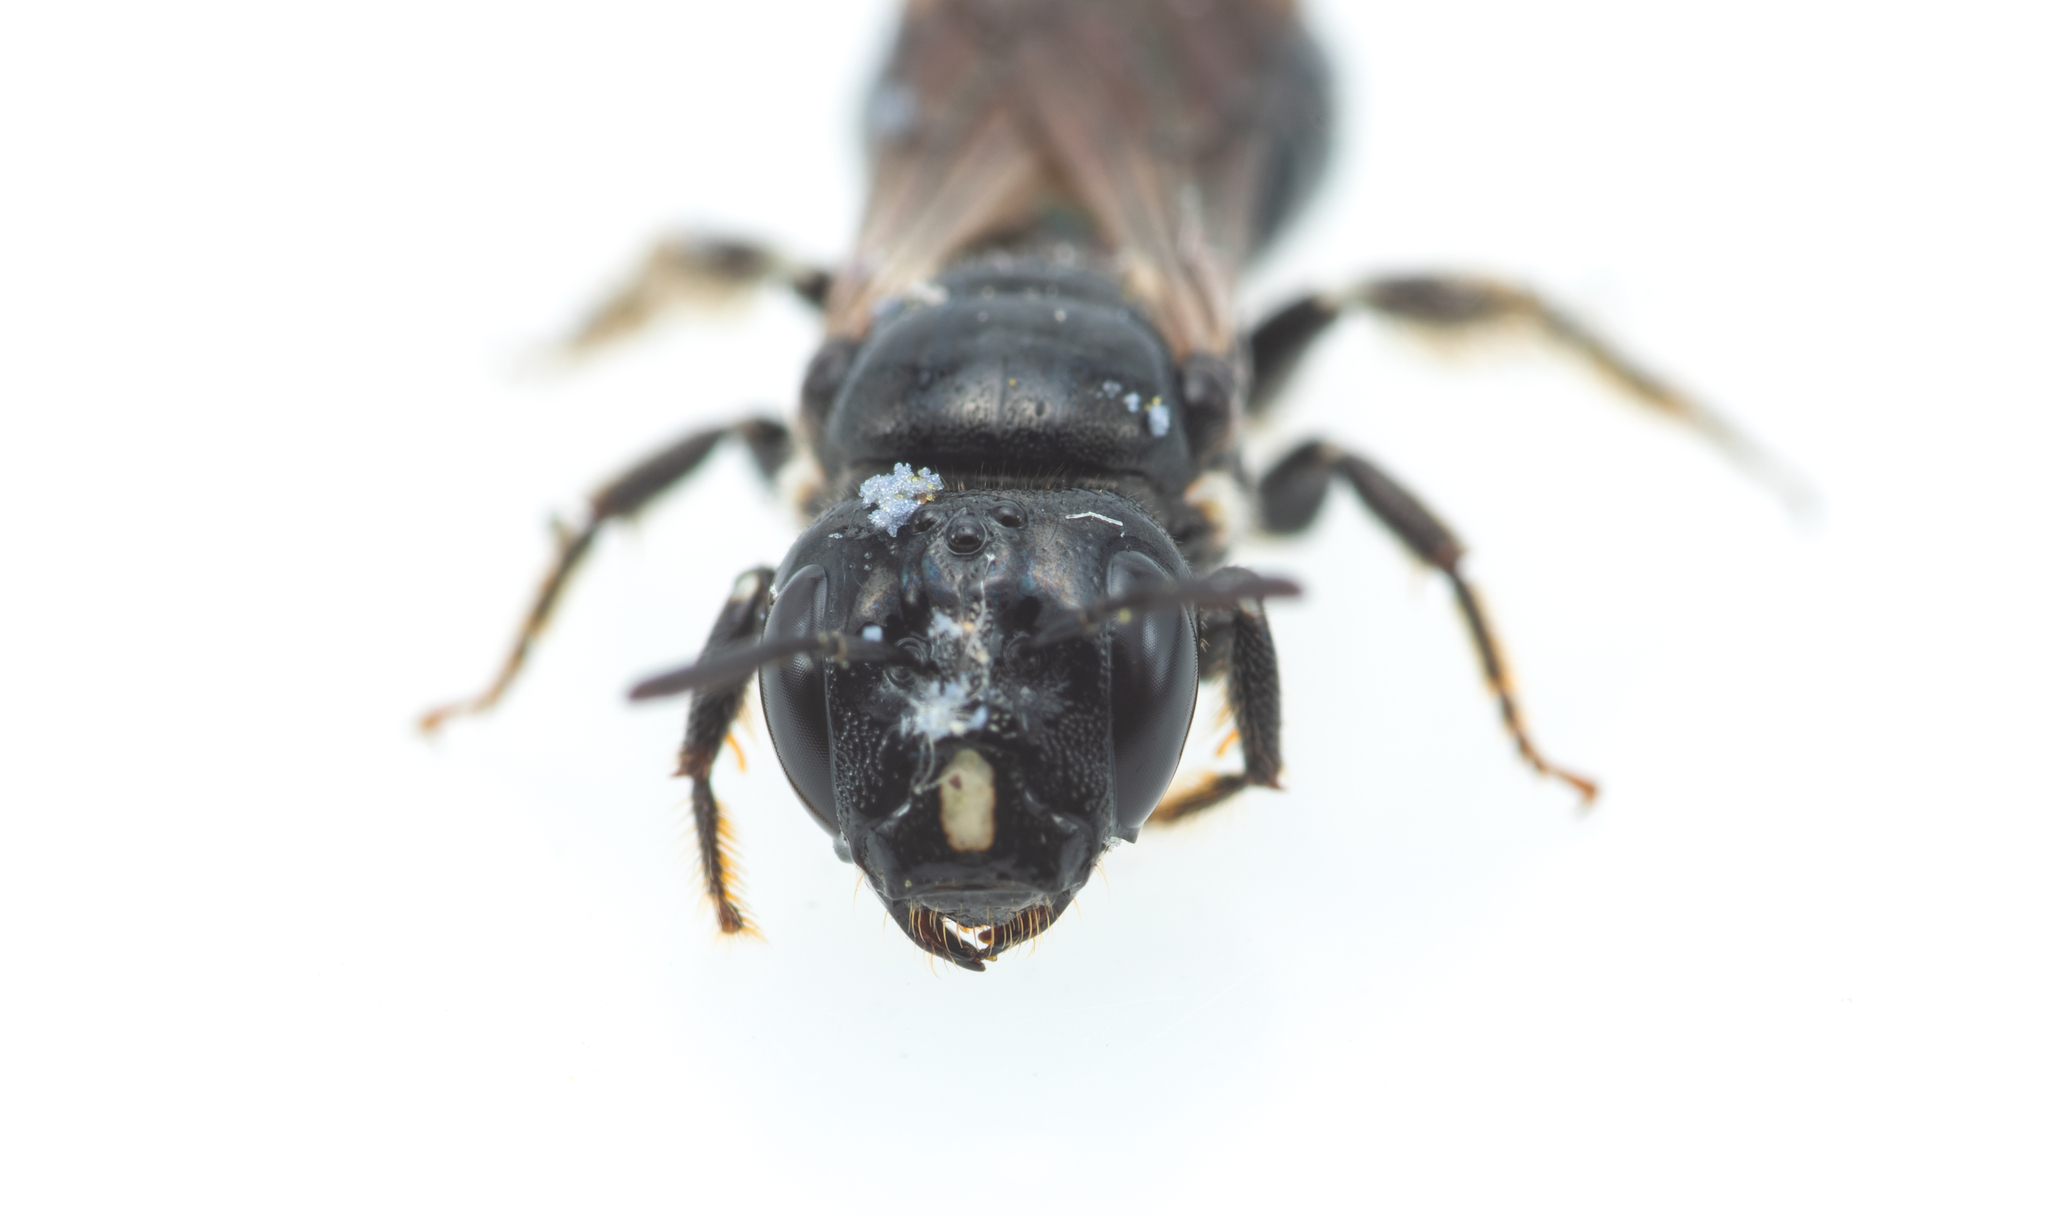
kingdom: Animalia
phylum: Arthropoda
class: Insecta
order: Hymenoptera
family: Apidae
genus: Ceratina
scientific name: Ceratina cucurbitina
